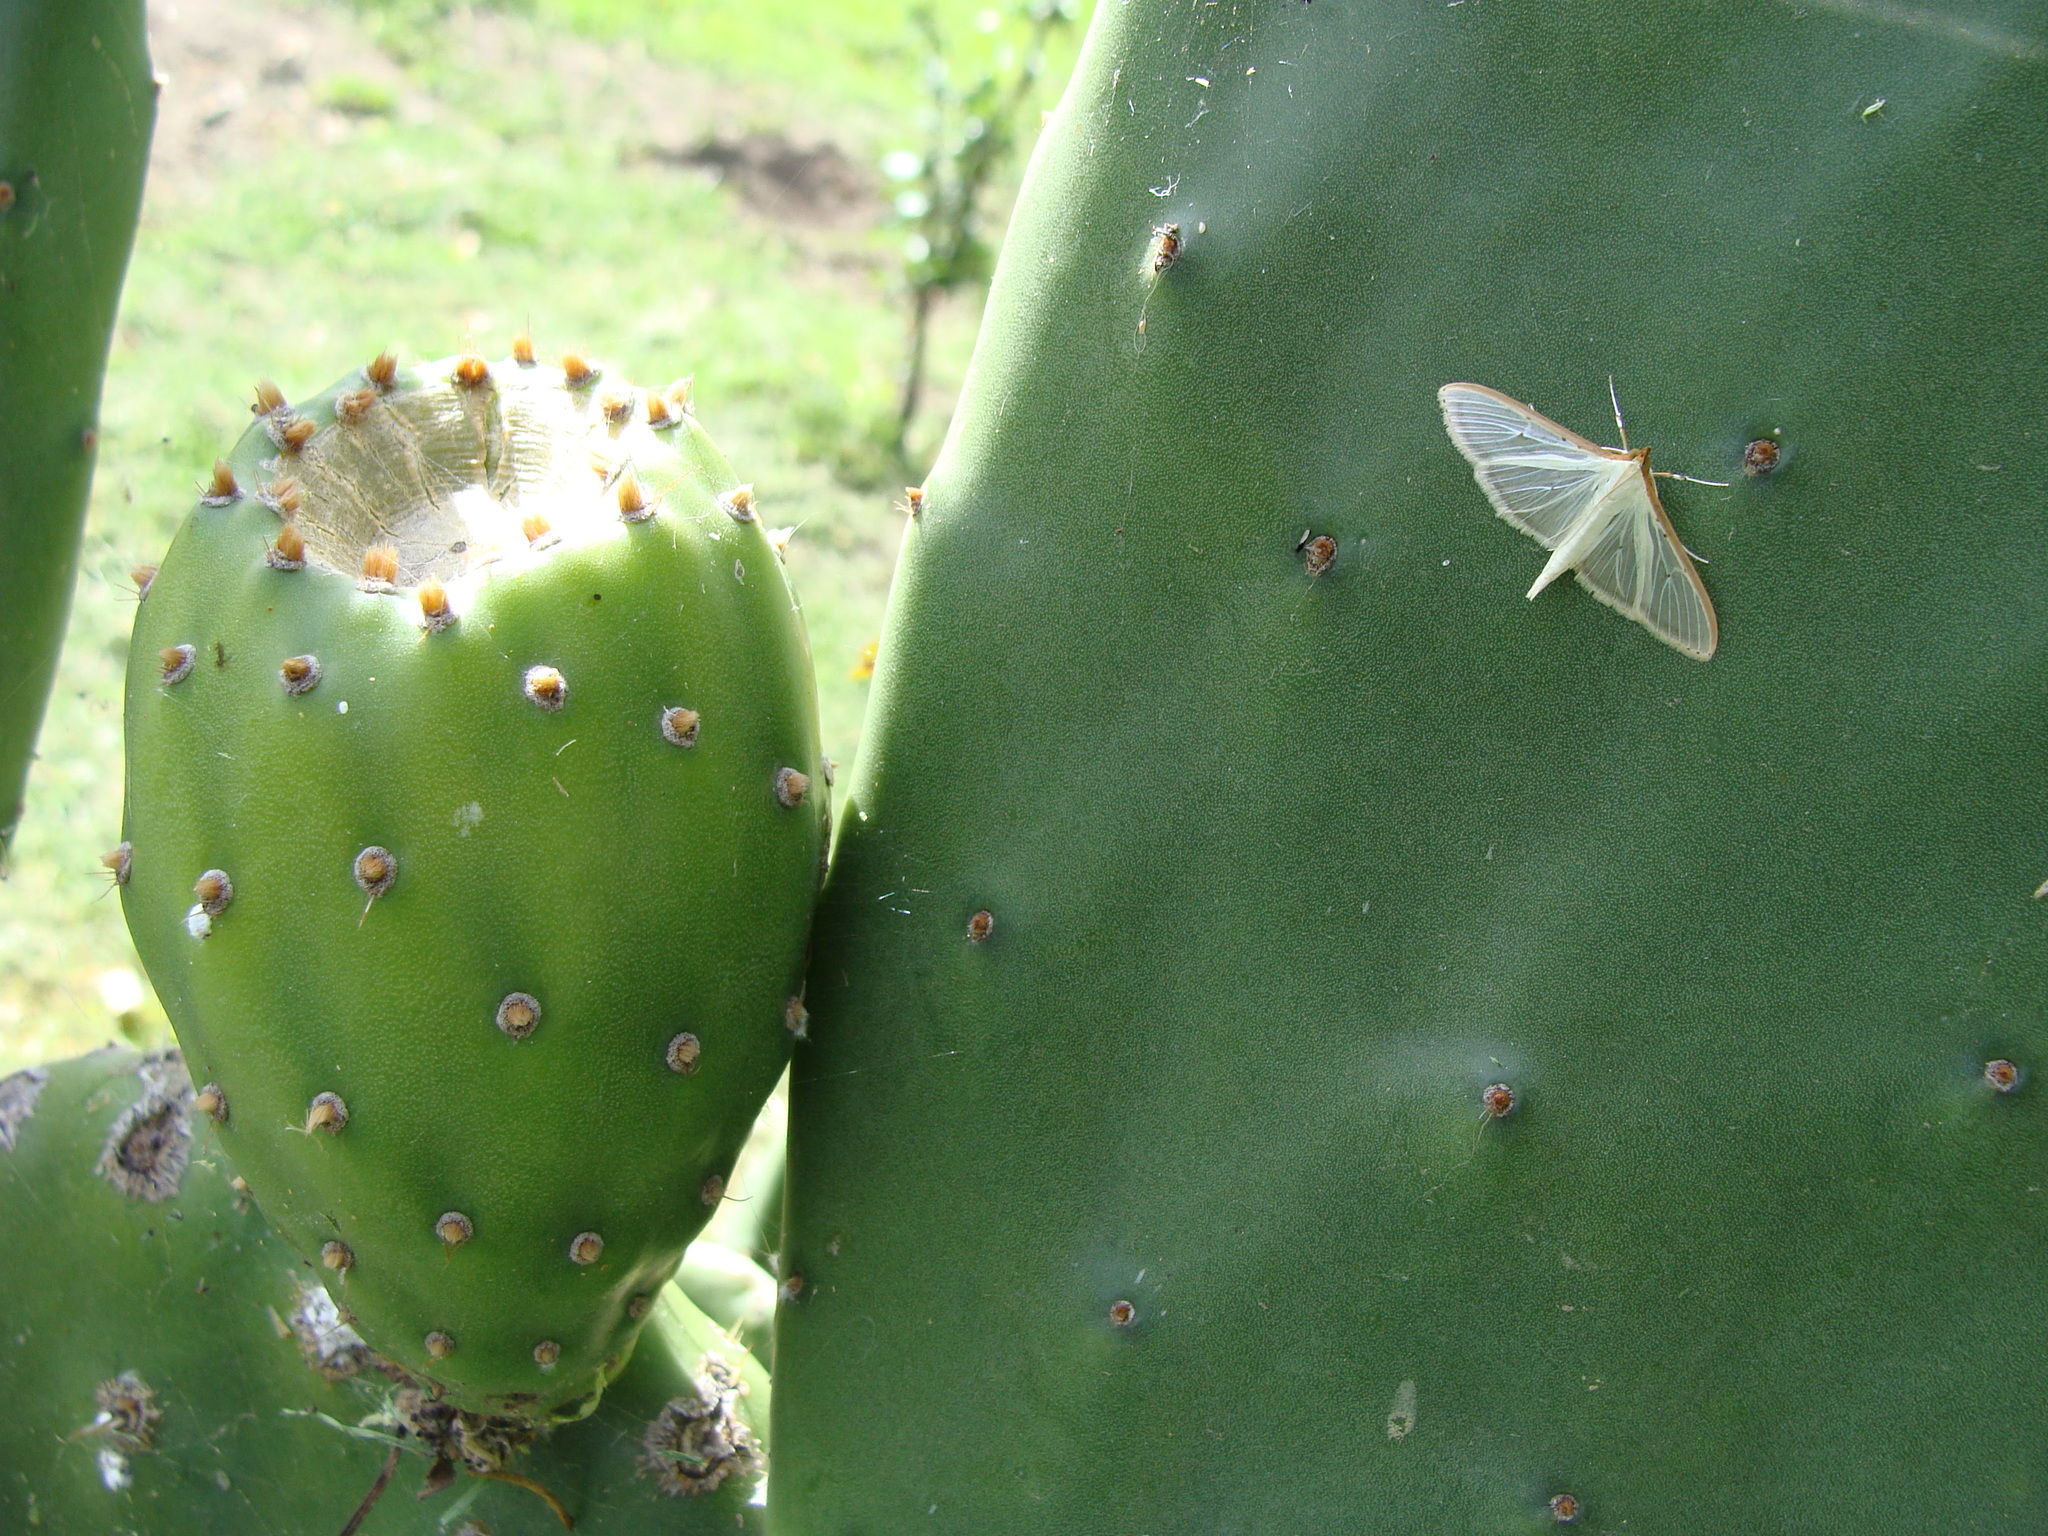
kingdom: Animalia
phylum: Arthropoda
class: Insecta
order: Lepidoptera
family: Crambidae
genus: Palpita
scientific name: Palpita quadristigmalis
